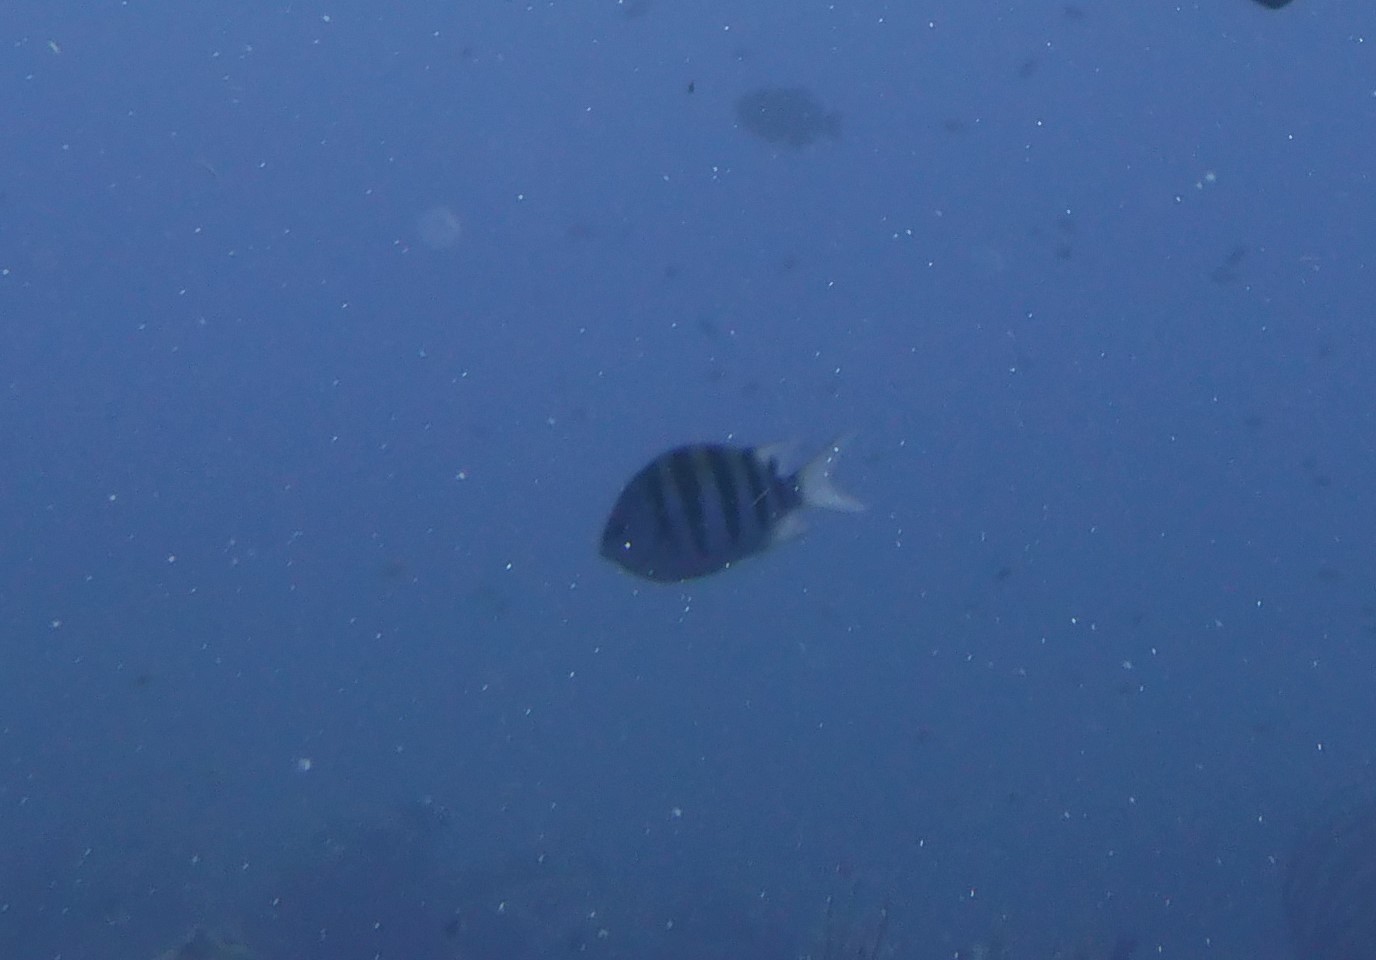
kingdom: Animalia
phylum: Chordata
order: Perciformes
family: Pomacentridae
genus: Abudefduf
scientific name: Abudefduf saxatilis
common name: Sergeant major
